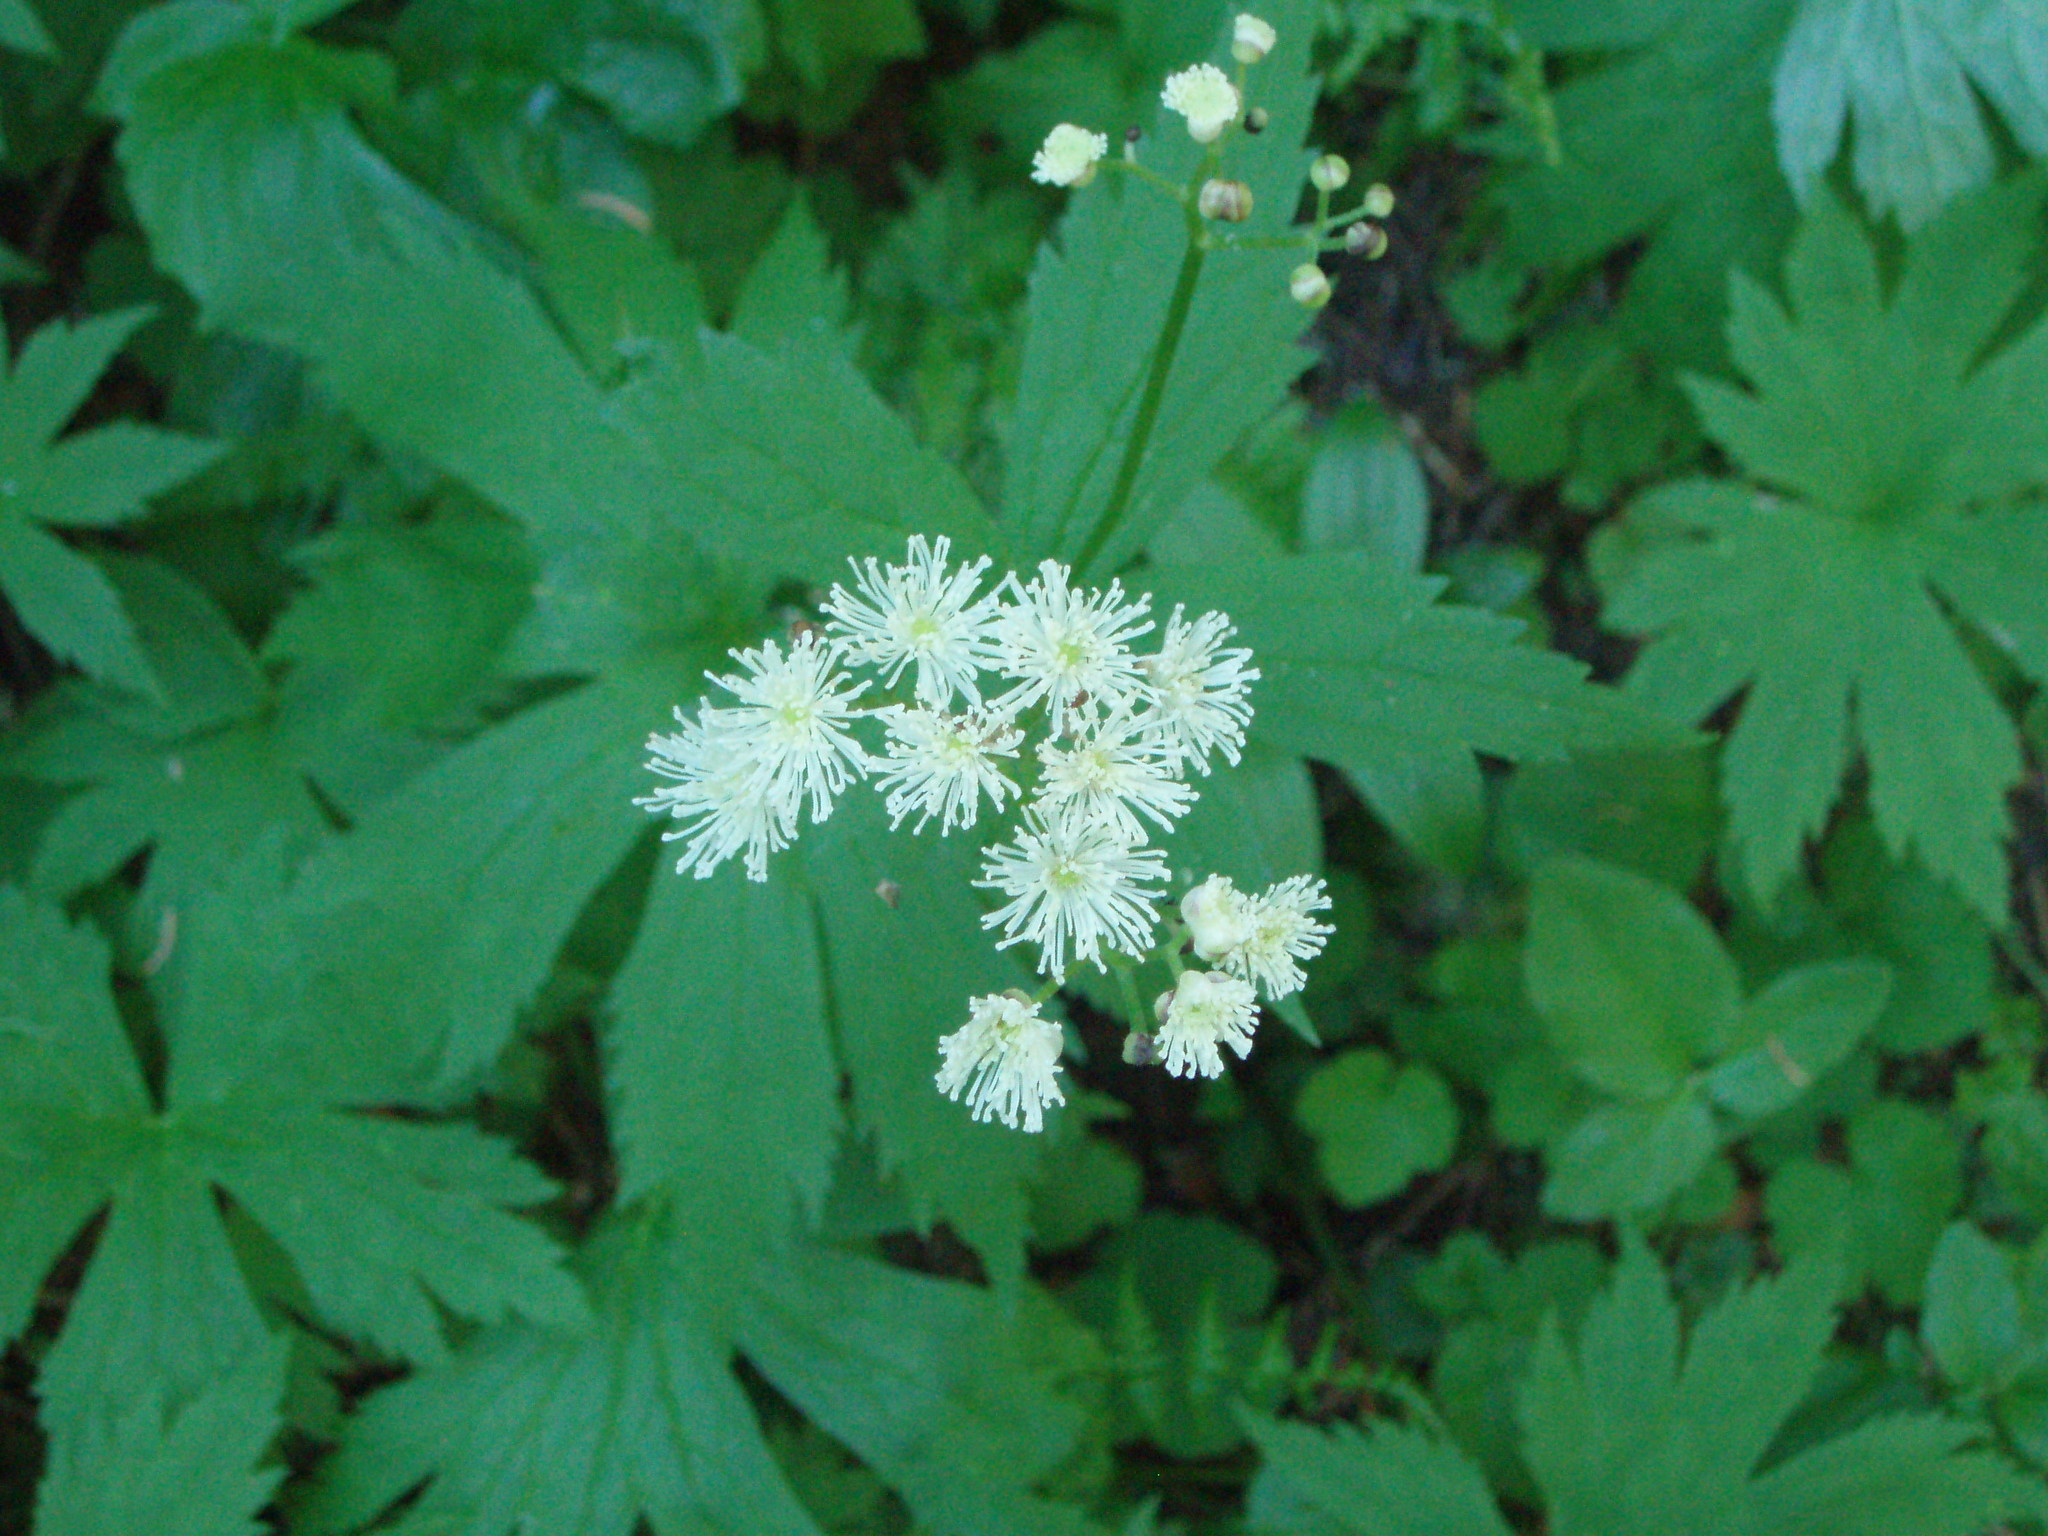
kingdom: Plantae
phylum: Tracheophyta
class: Magnoliopsida
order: Ranunculales
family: Ranunculaceae
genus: Trautvetteria
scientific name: Trautvetteria carolinensis
